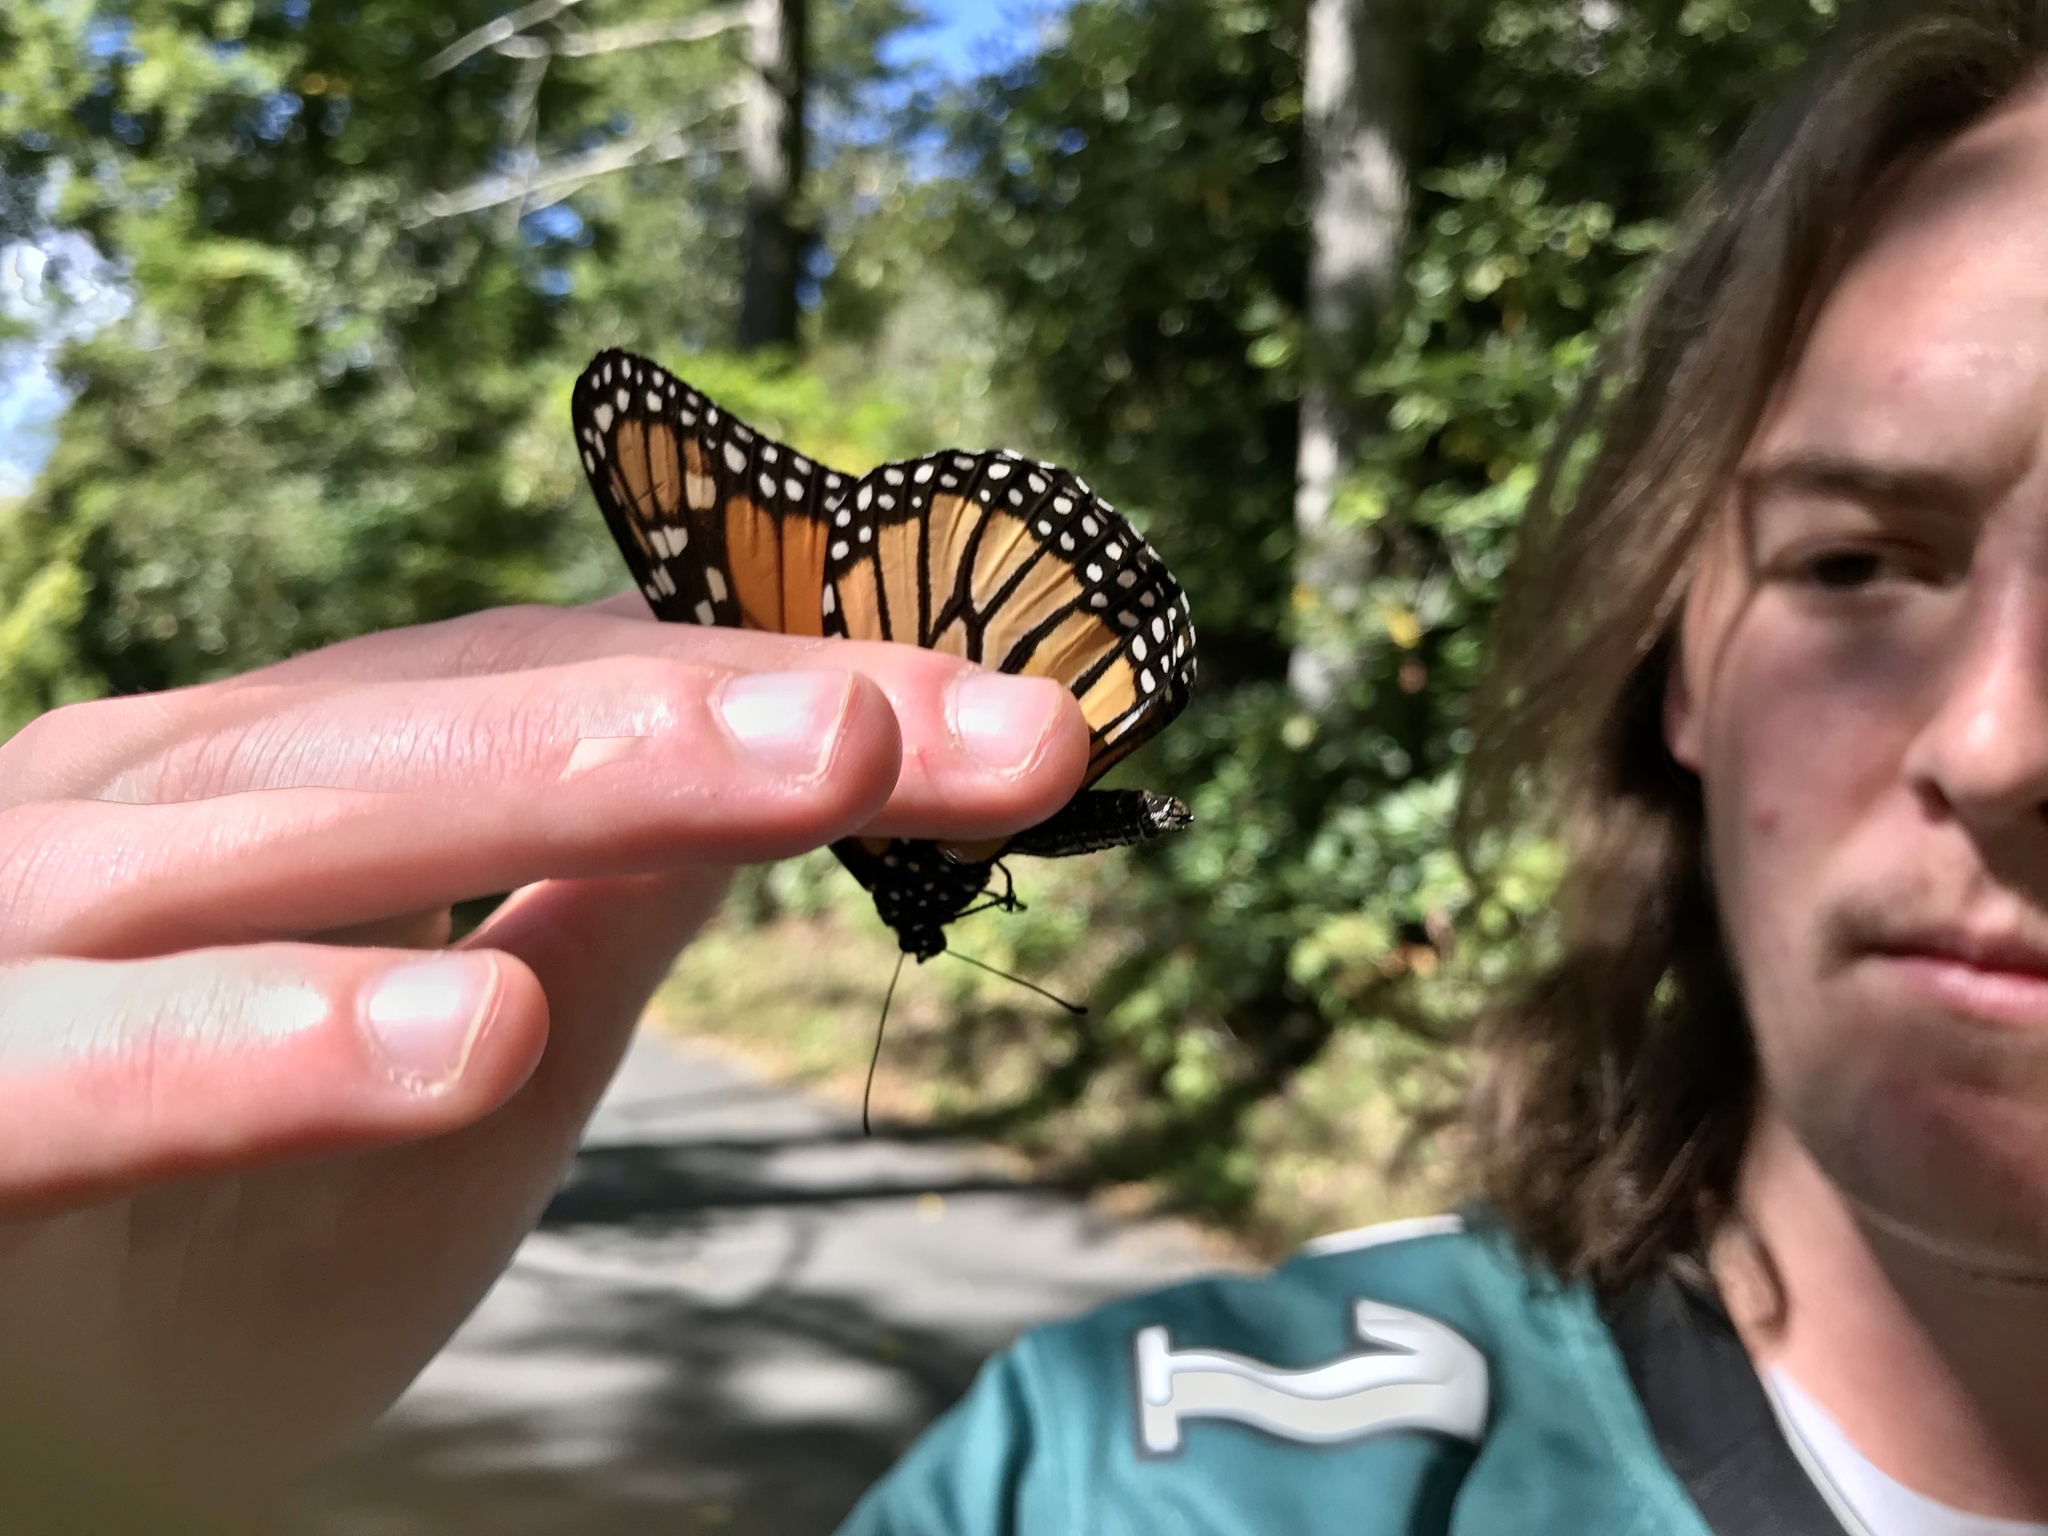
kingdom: Animalia
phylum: Arthropoda
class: Insecta
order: Lepidoptera
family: Nymphalidae
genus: Danaus
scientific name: Danaus plexippus
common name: Monarch
